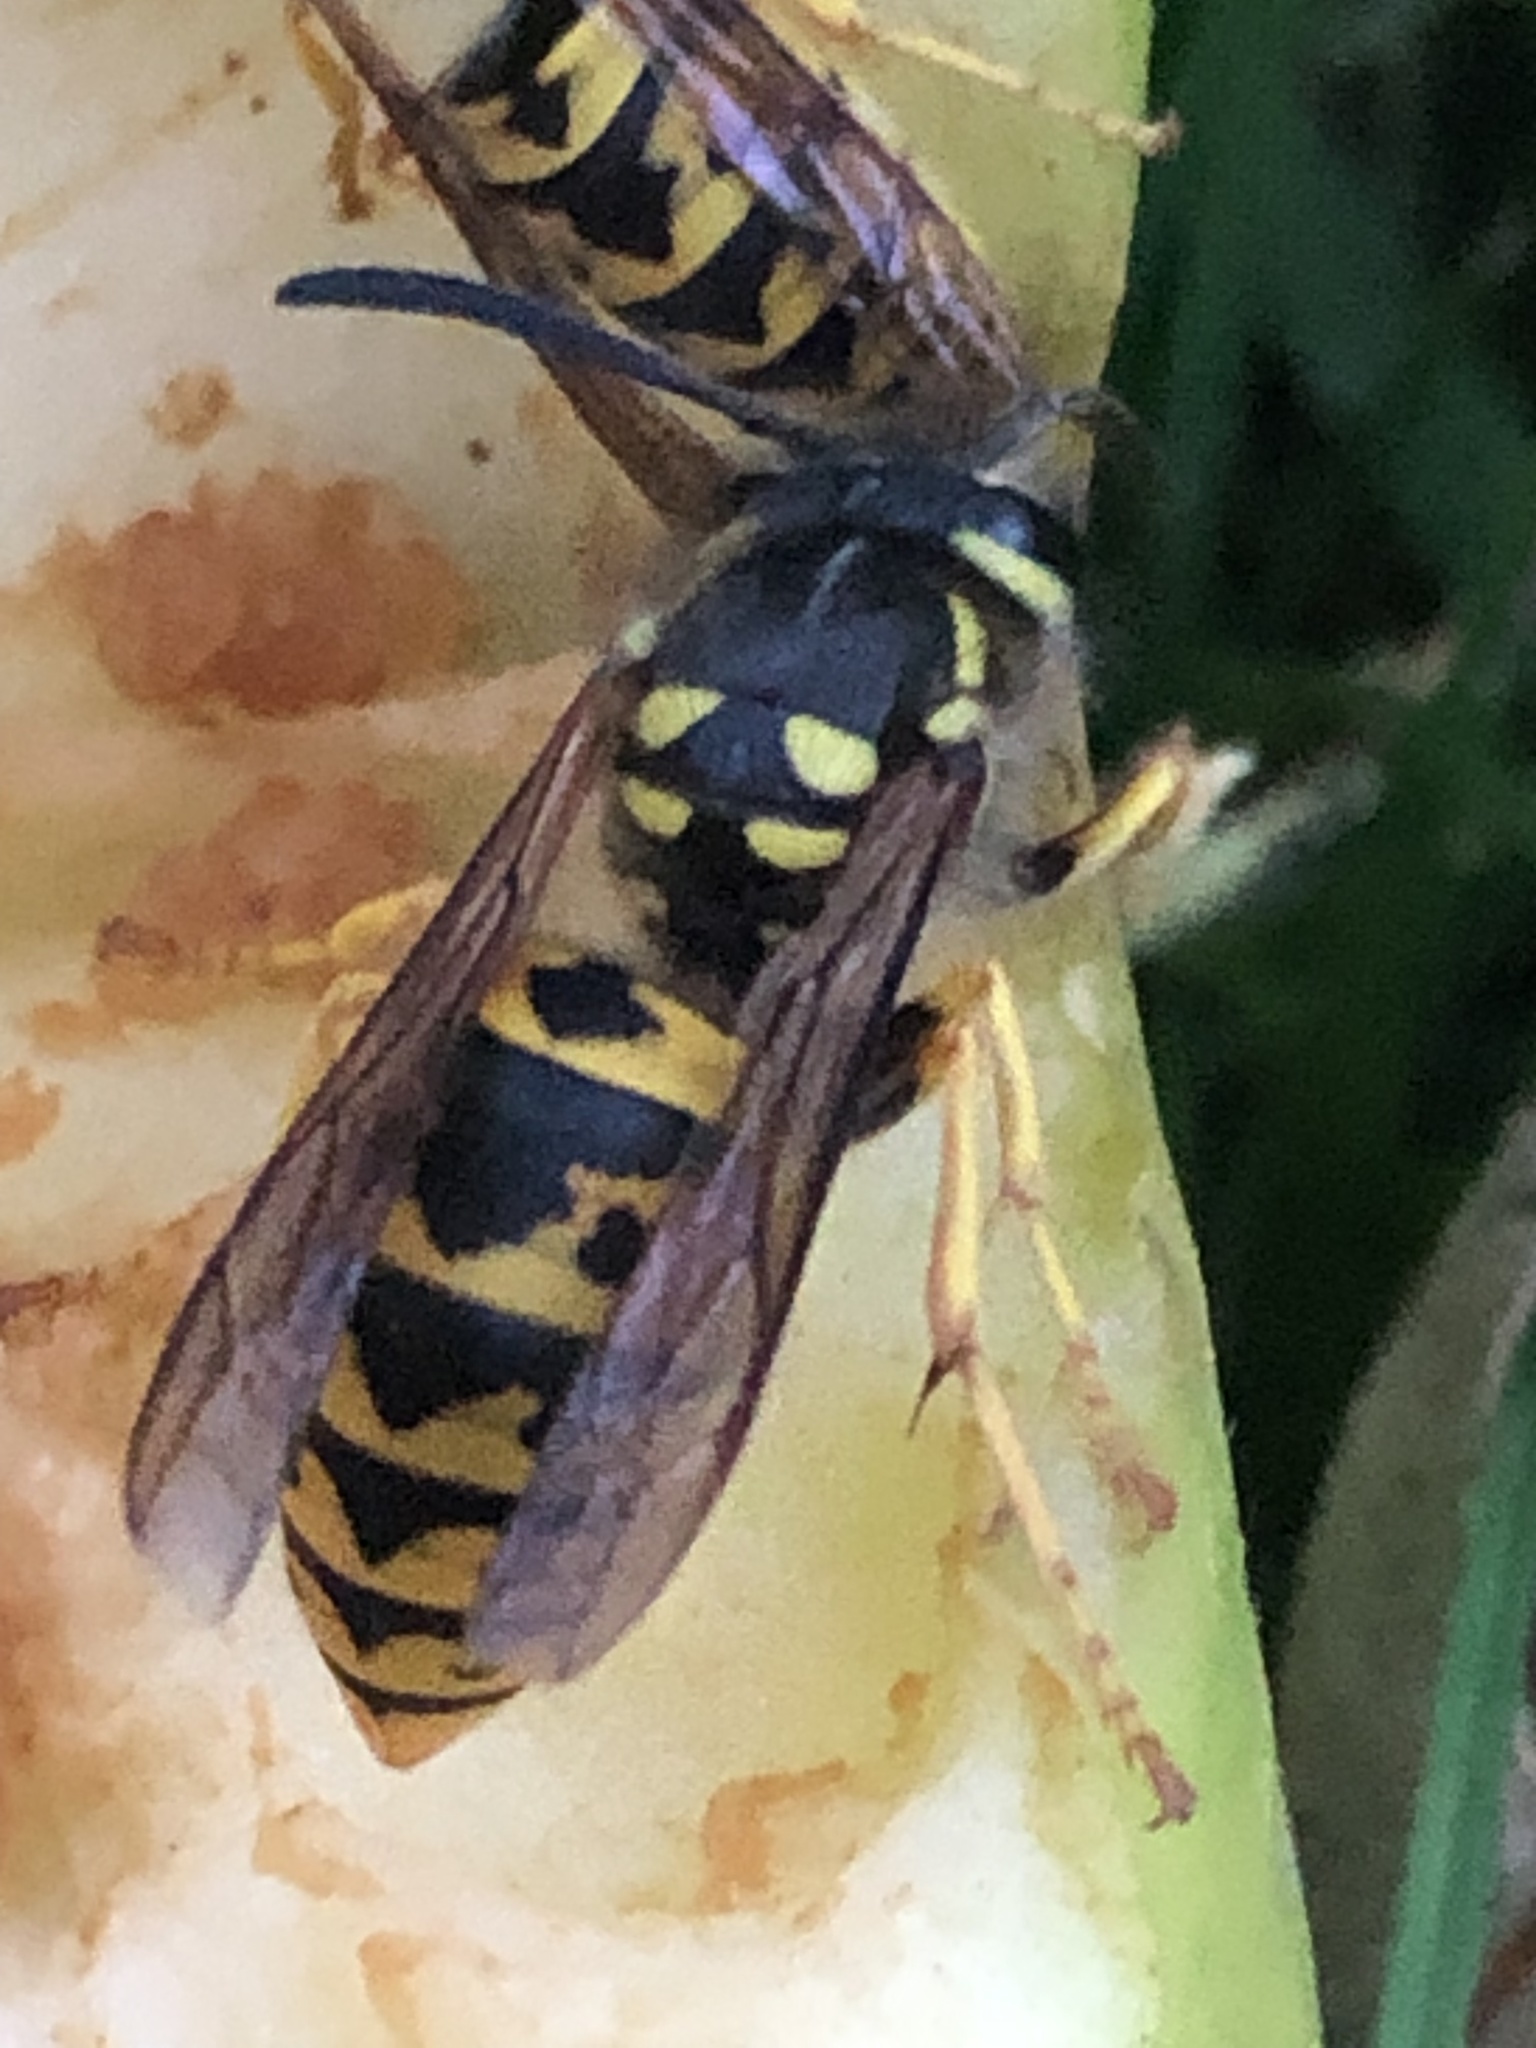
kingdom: Animalia
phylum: Arthropoda
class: Insecta
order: Hymenoptera
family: Vespidae
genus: Vespula
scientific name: Vespula germanica
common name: German wasp
